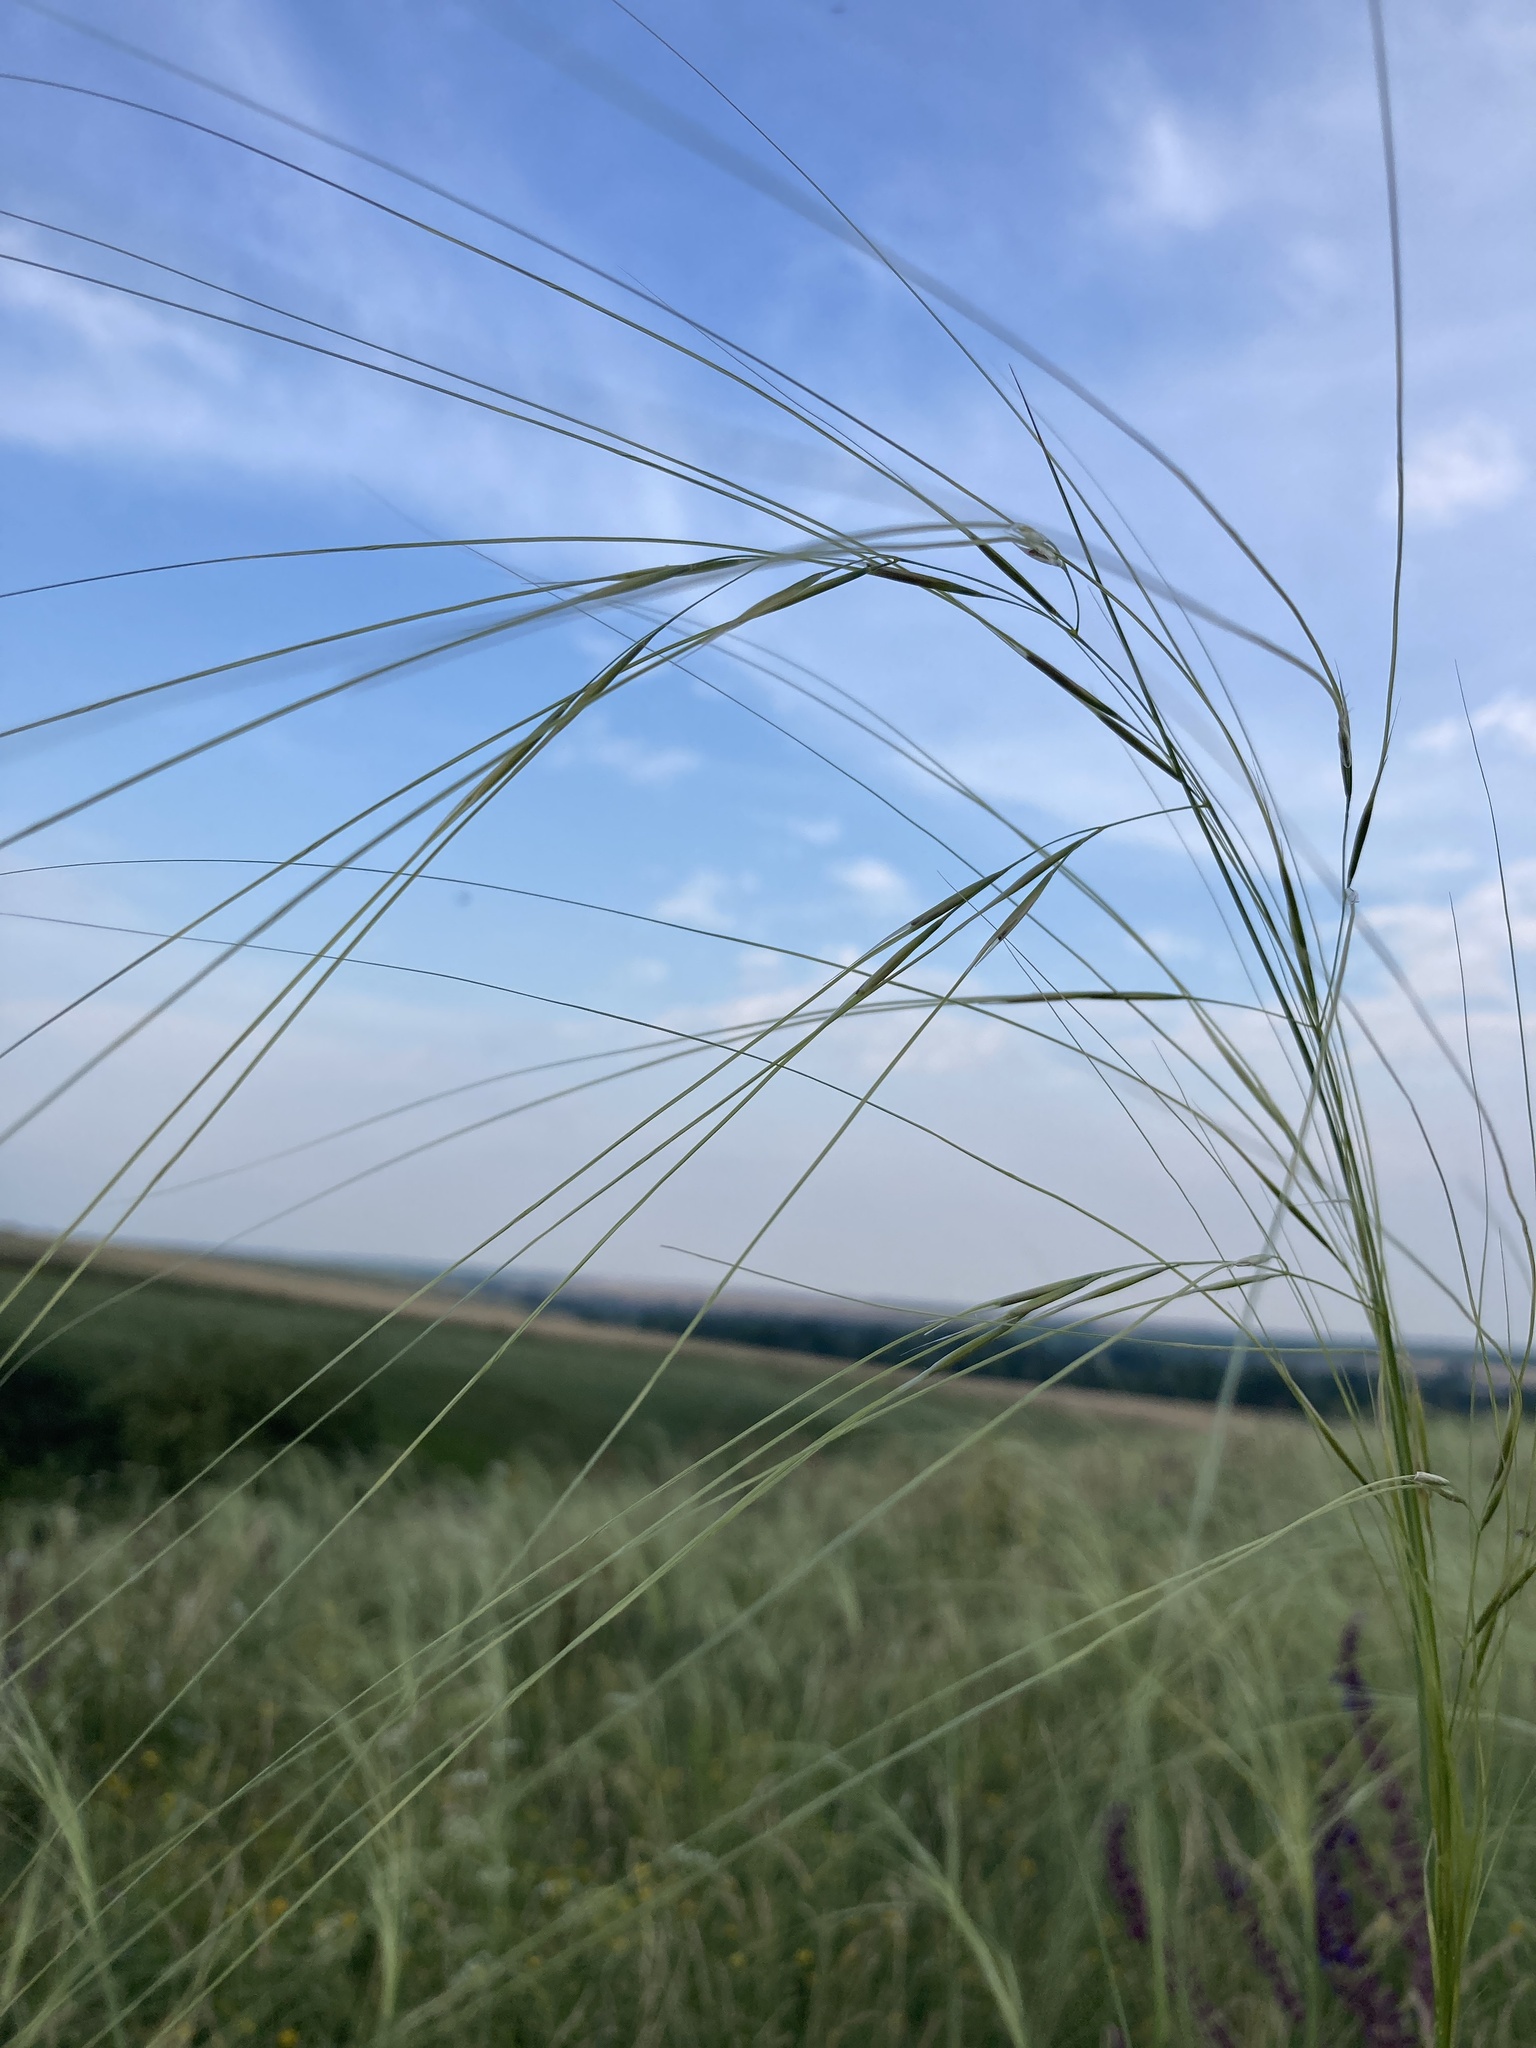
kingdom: Plantae
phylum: Tracheophyta
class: Liliopsida
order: Poales
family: Poaceae
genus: Stipa
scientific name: Stipa capillata
